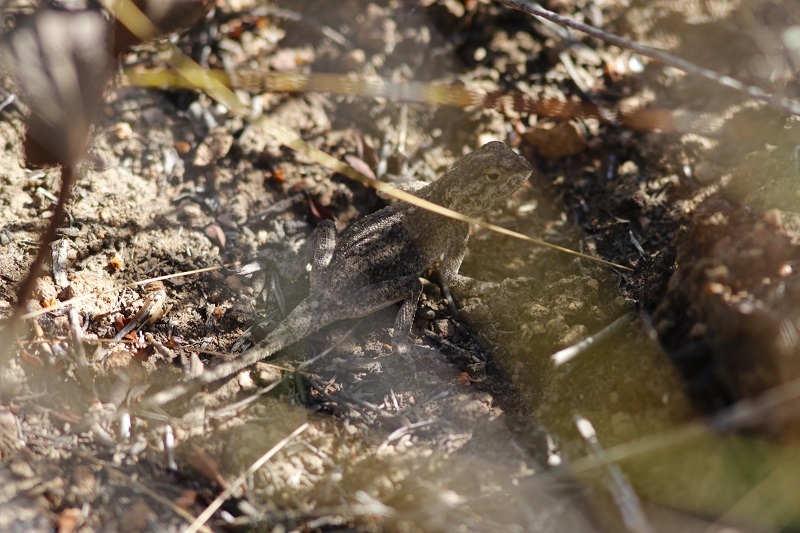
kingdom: Animalia
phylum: Chordata
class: Squamata
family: Agamidae
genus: Agama
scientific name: Agama atra
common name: Southern african rock agama
